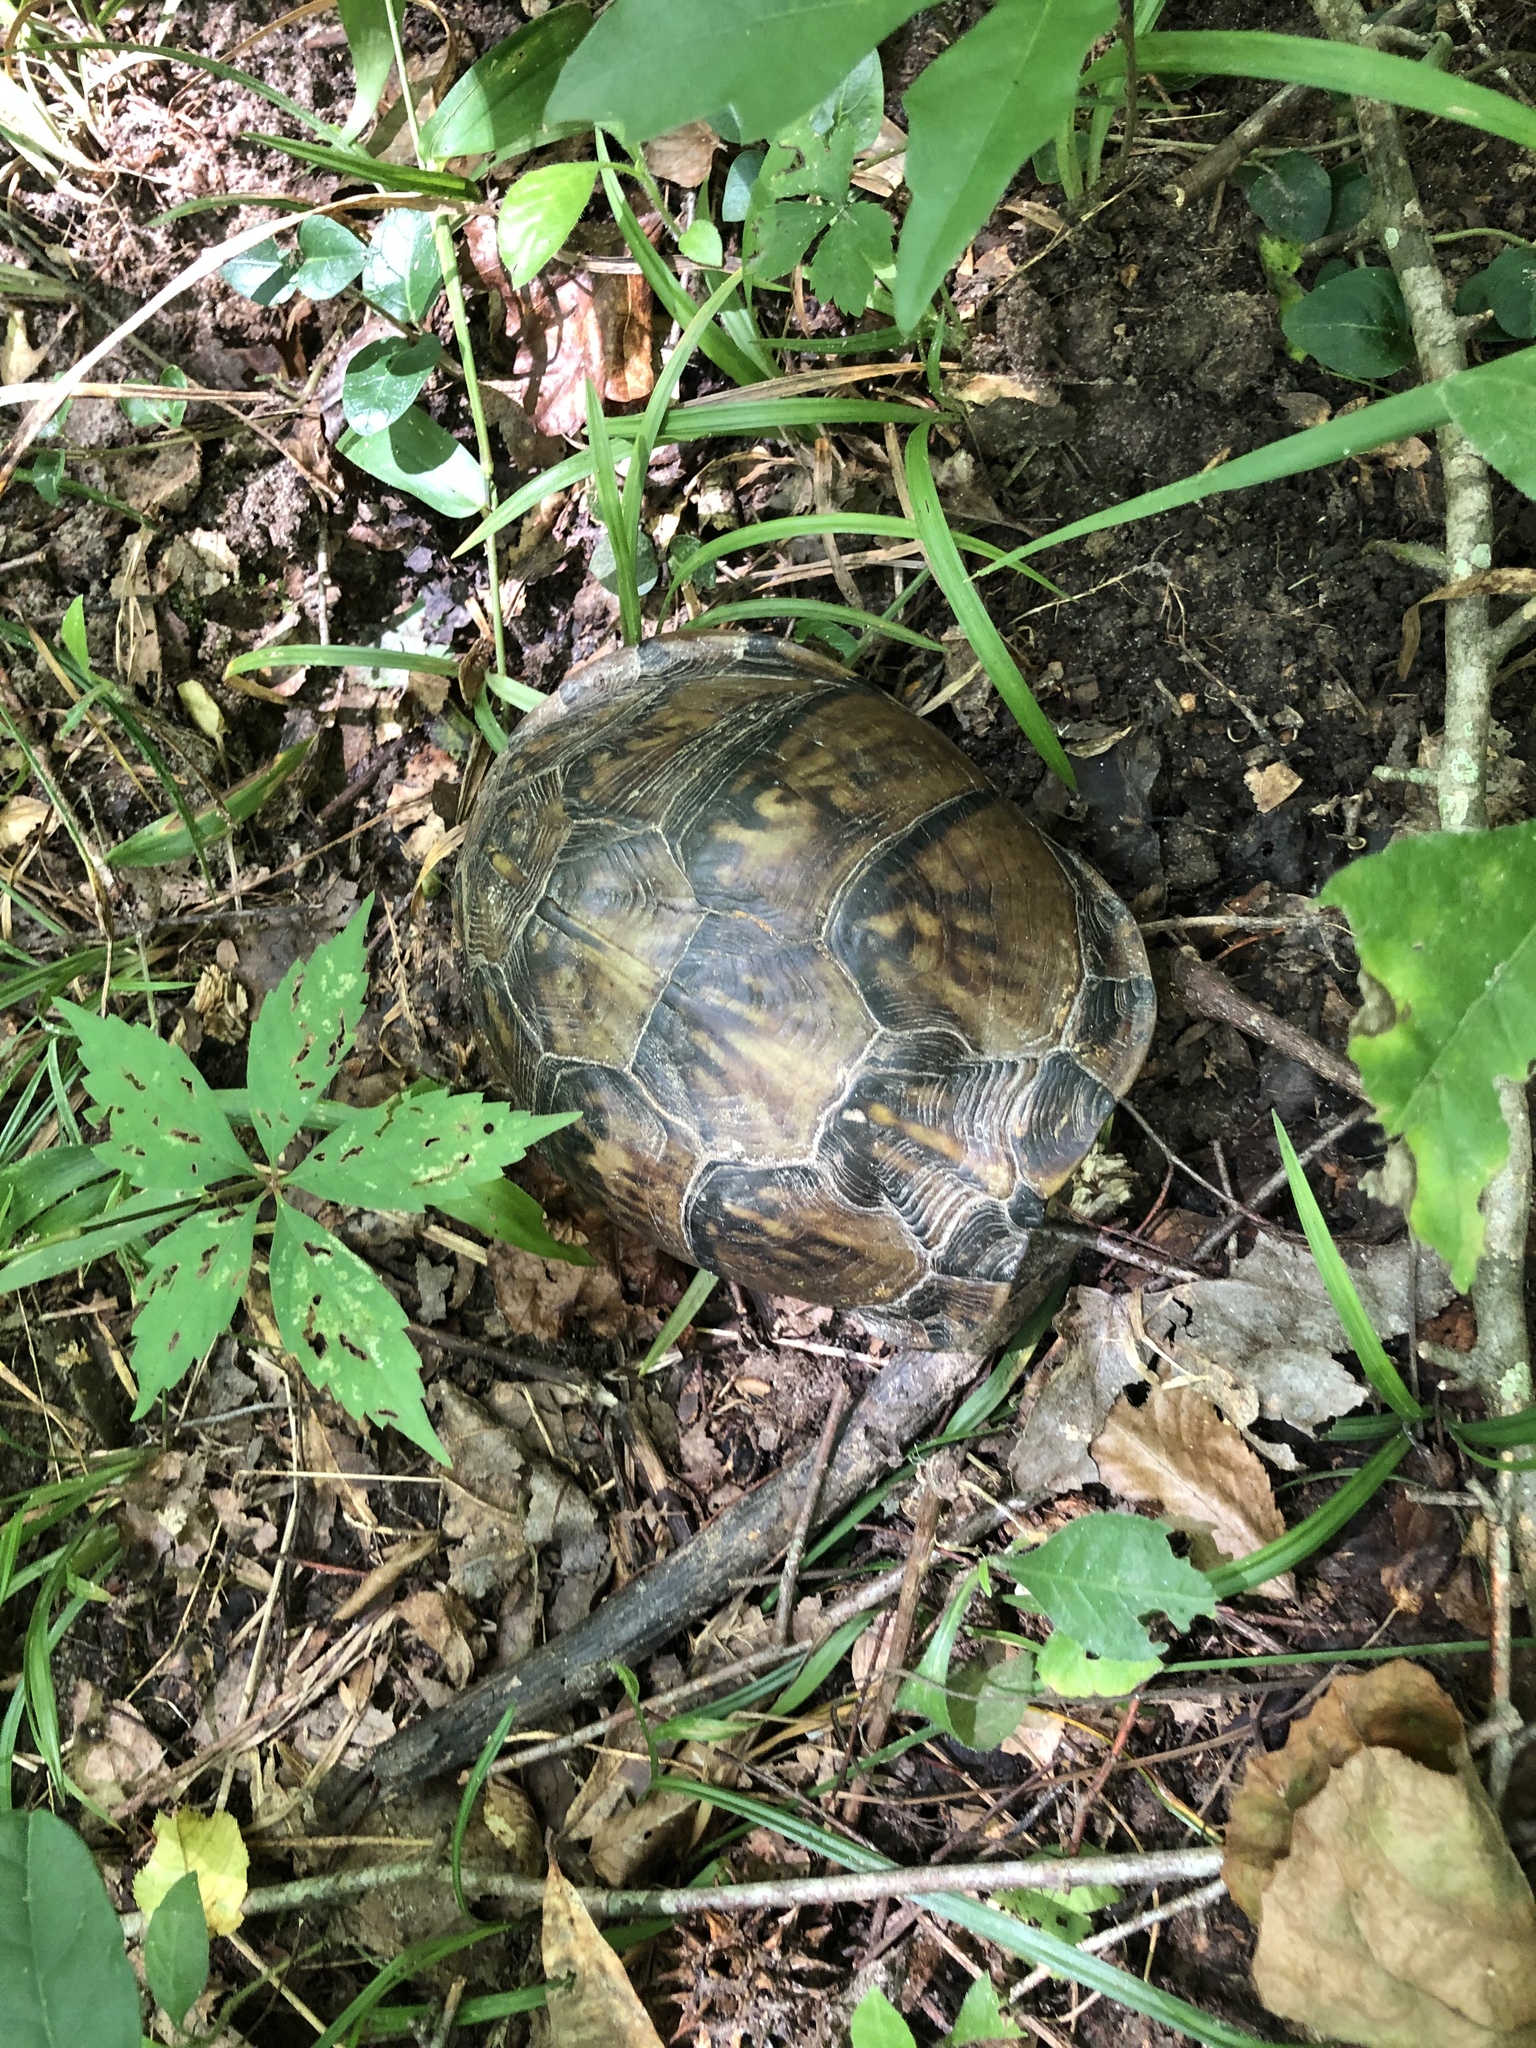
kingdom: Animalia
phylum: Chordata
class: Testudines
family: Emydidae
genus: Terrapene
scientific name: Terrapene carolina
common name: Common box turtle
